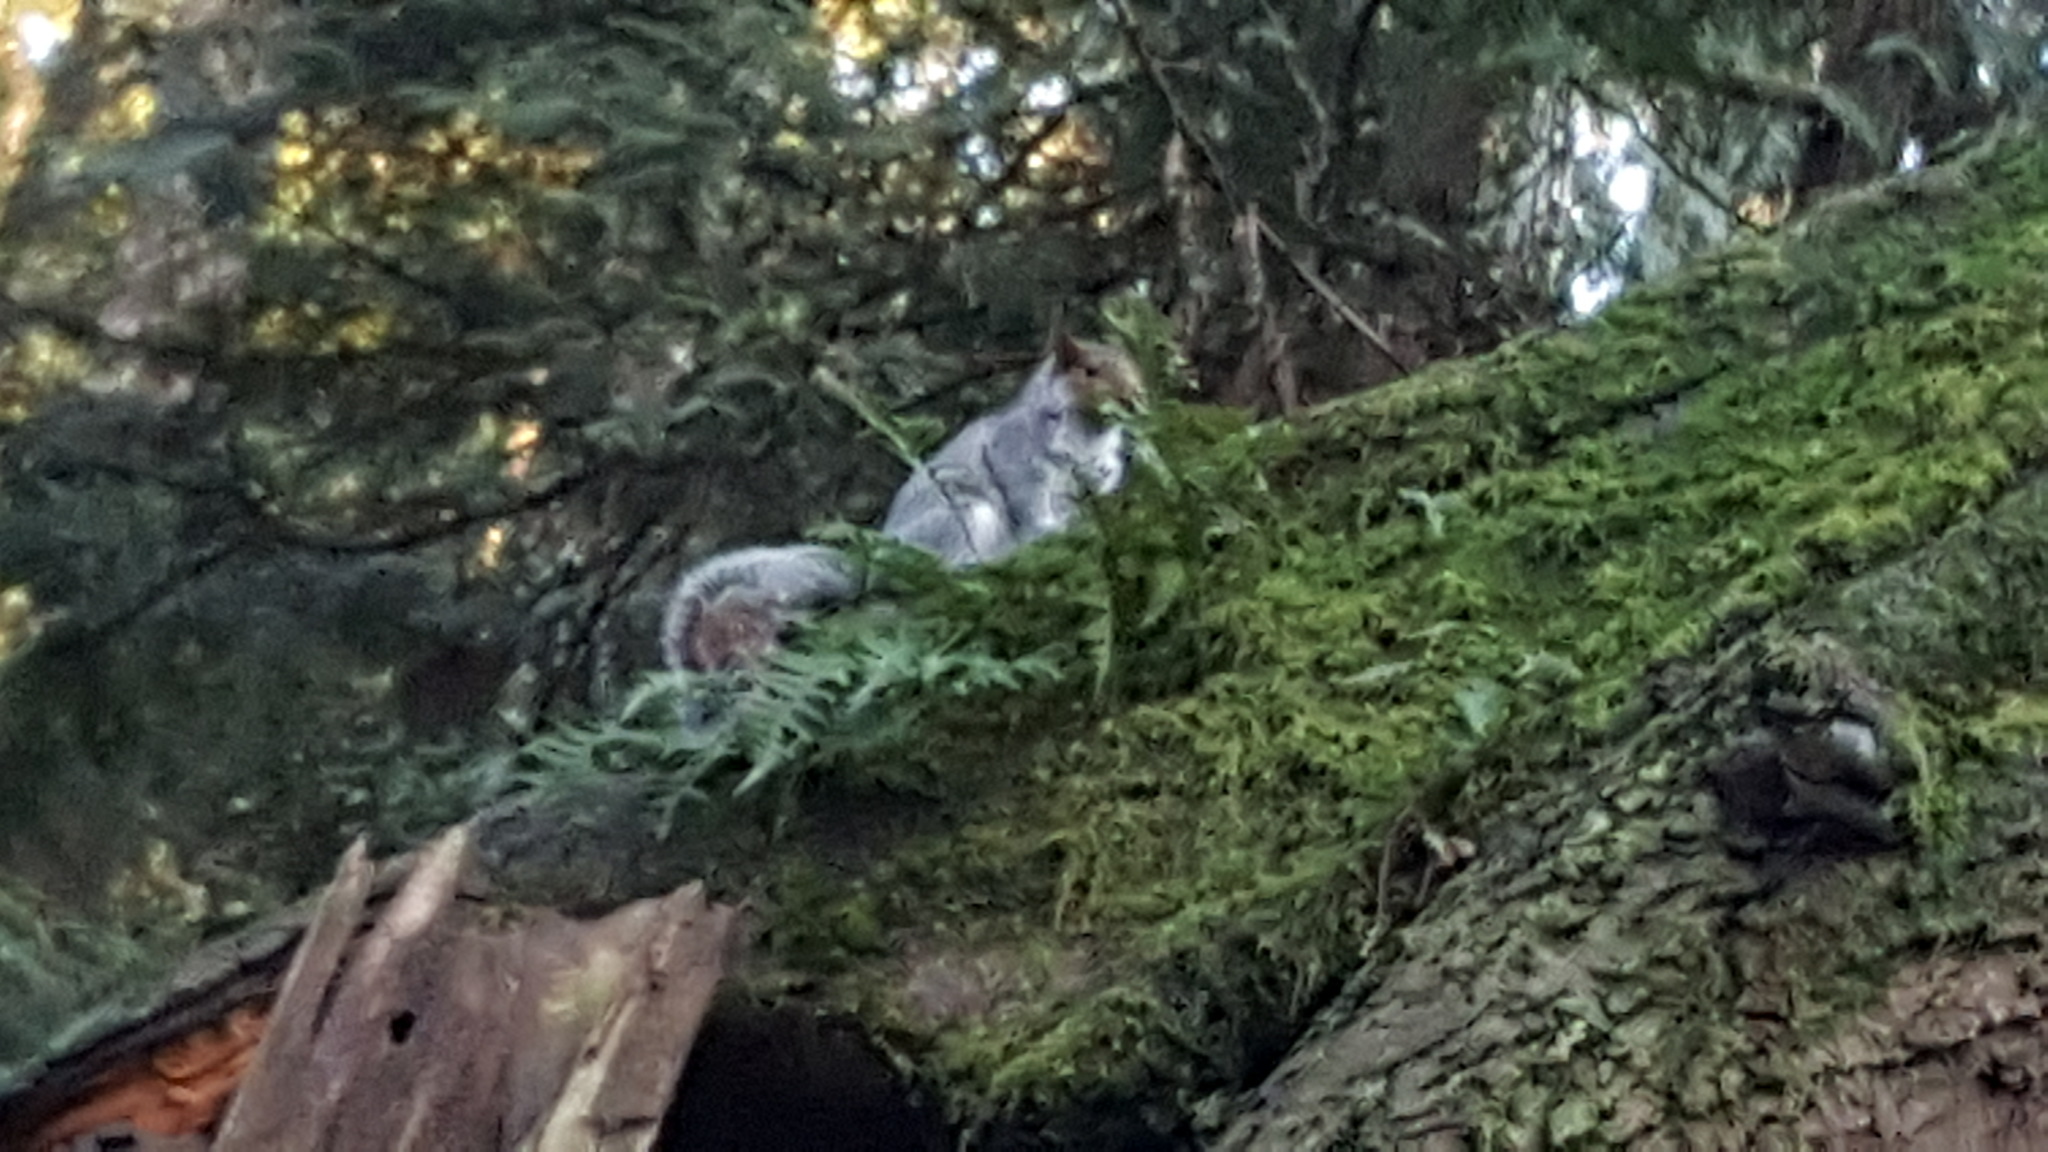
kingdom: Animalia
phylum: Chordata
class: Mammalia
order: Rodentia
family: Sciuridae
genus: Sciurus
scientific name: Sciurus carolinensis
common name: Eastern gray squirrel
